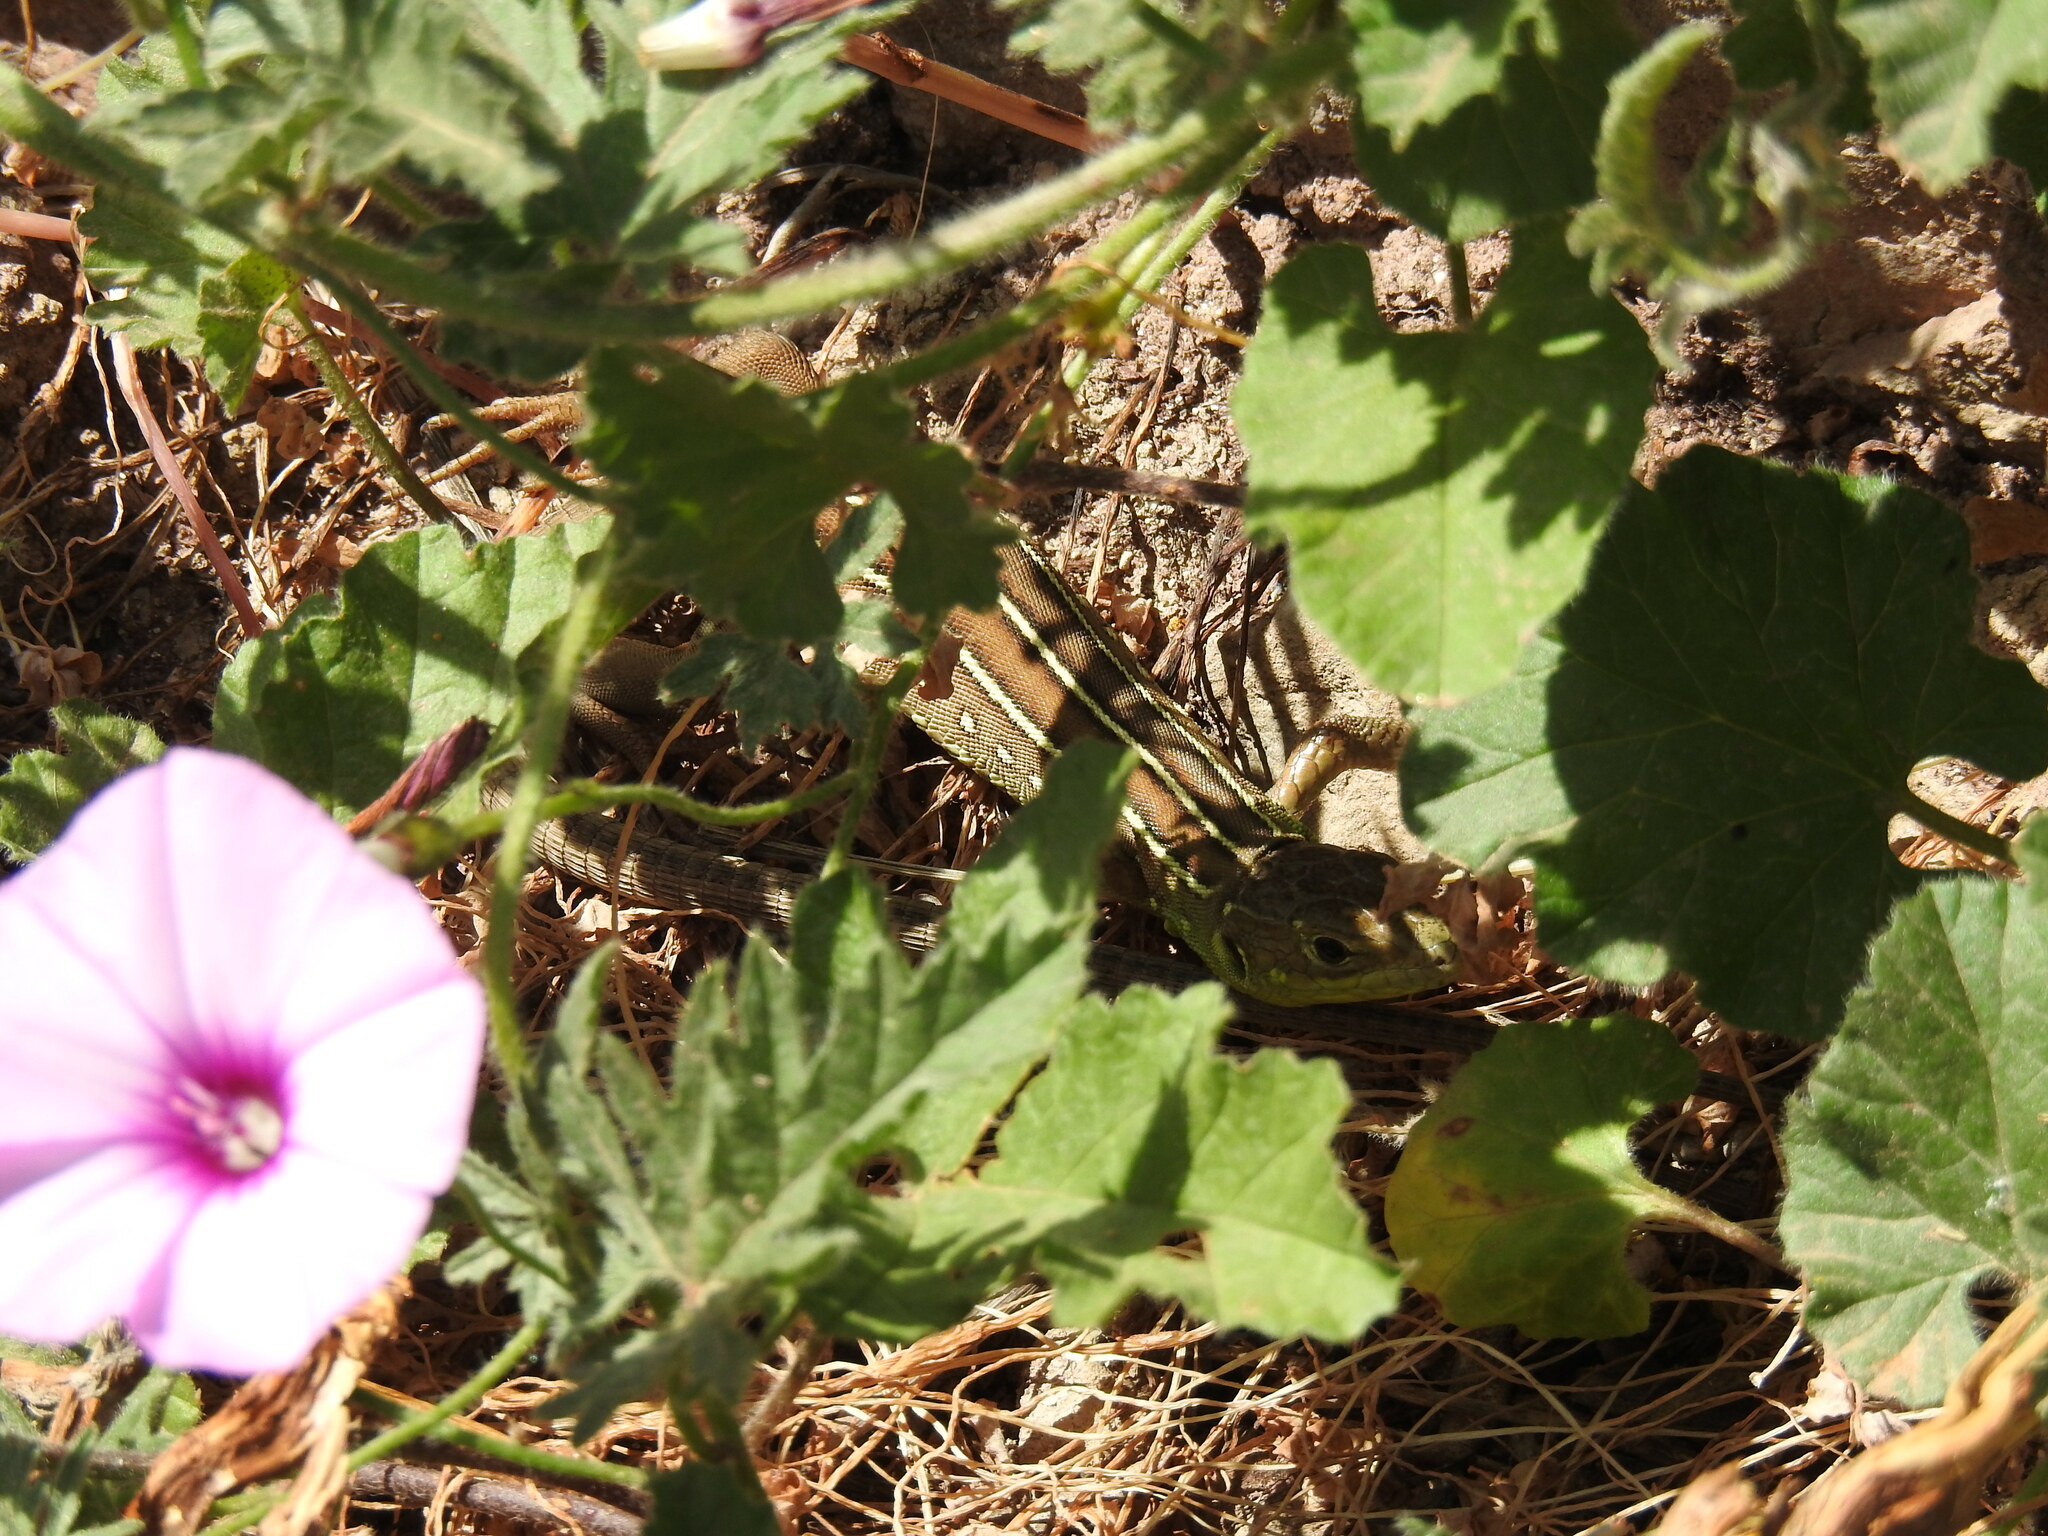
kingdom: Animalia
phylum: Chordata
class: Squamata
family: Lacertidae
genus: Lacerta
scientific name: Lacerta trilineata
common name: Balkan green lizard
